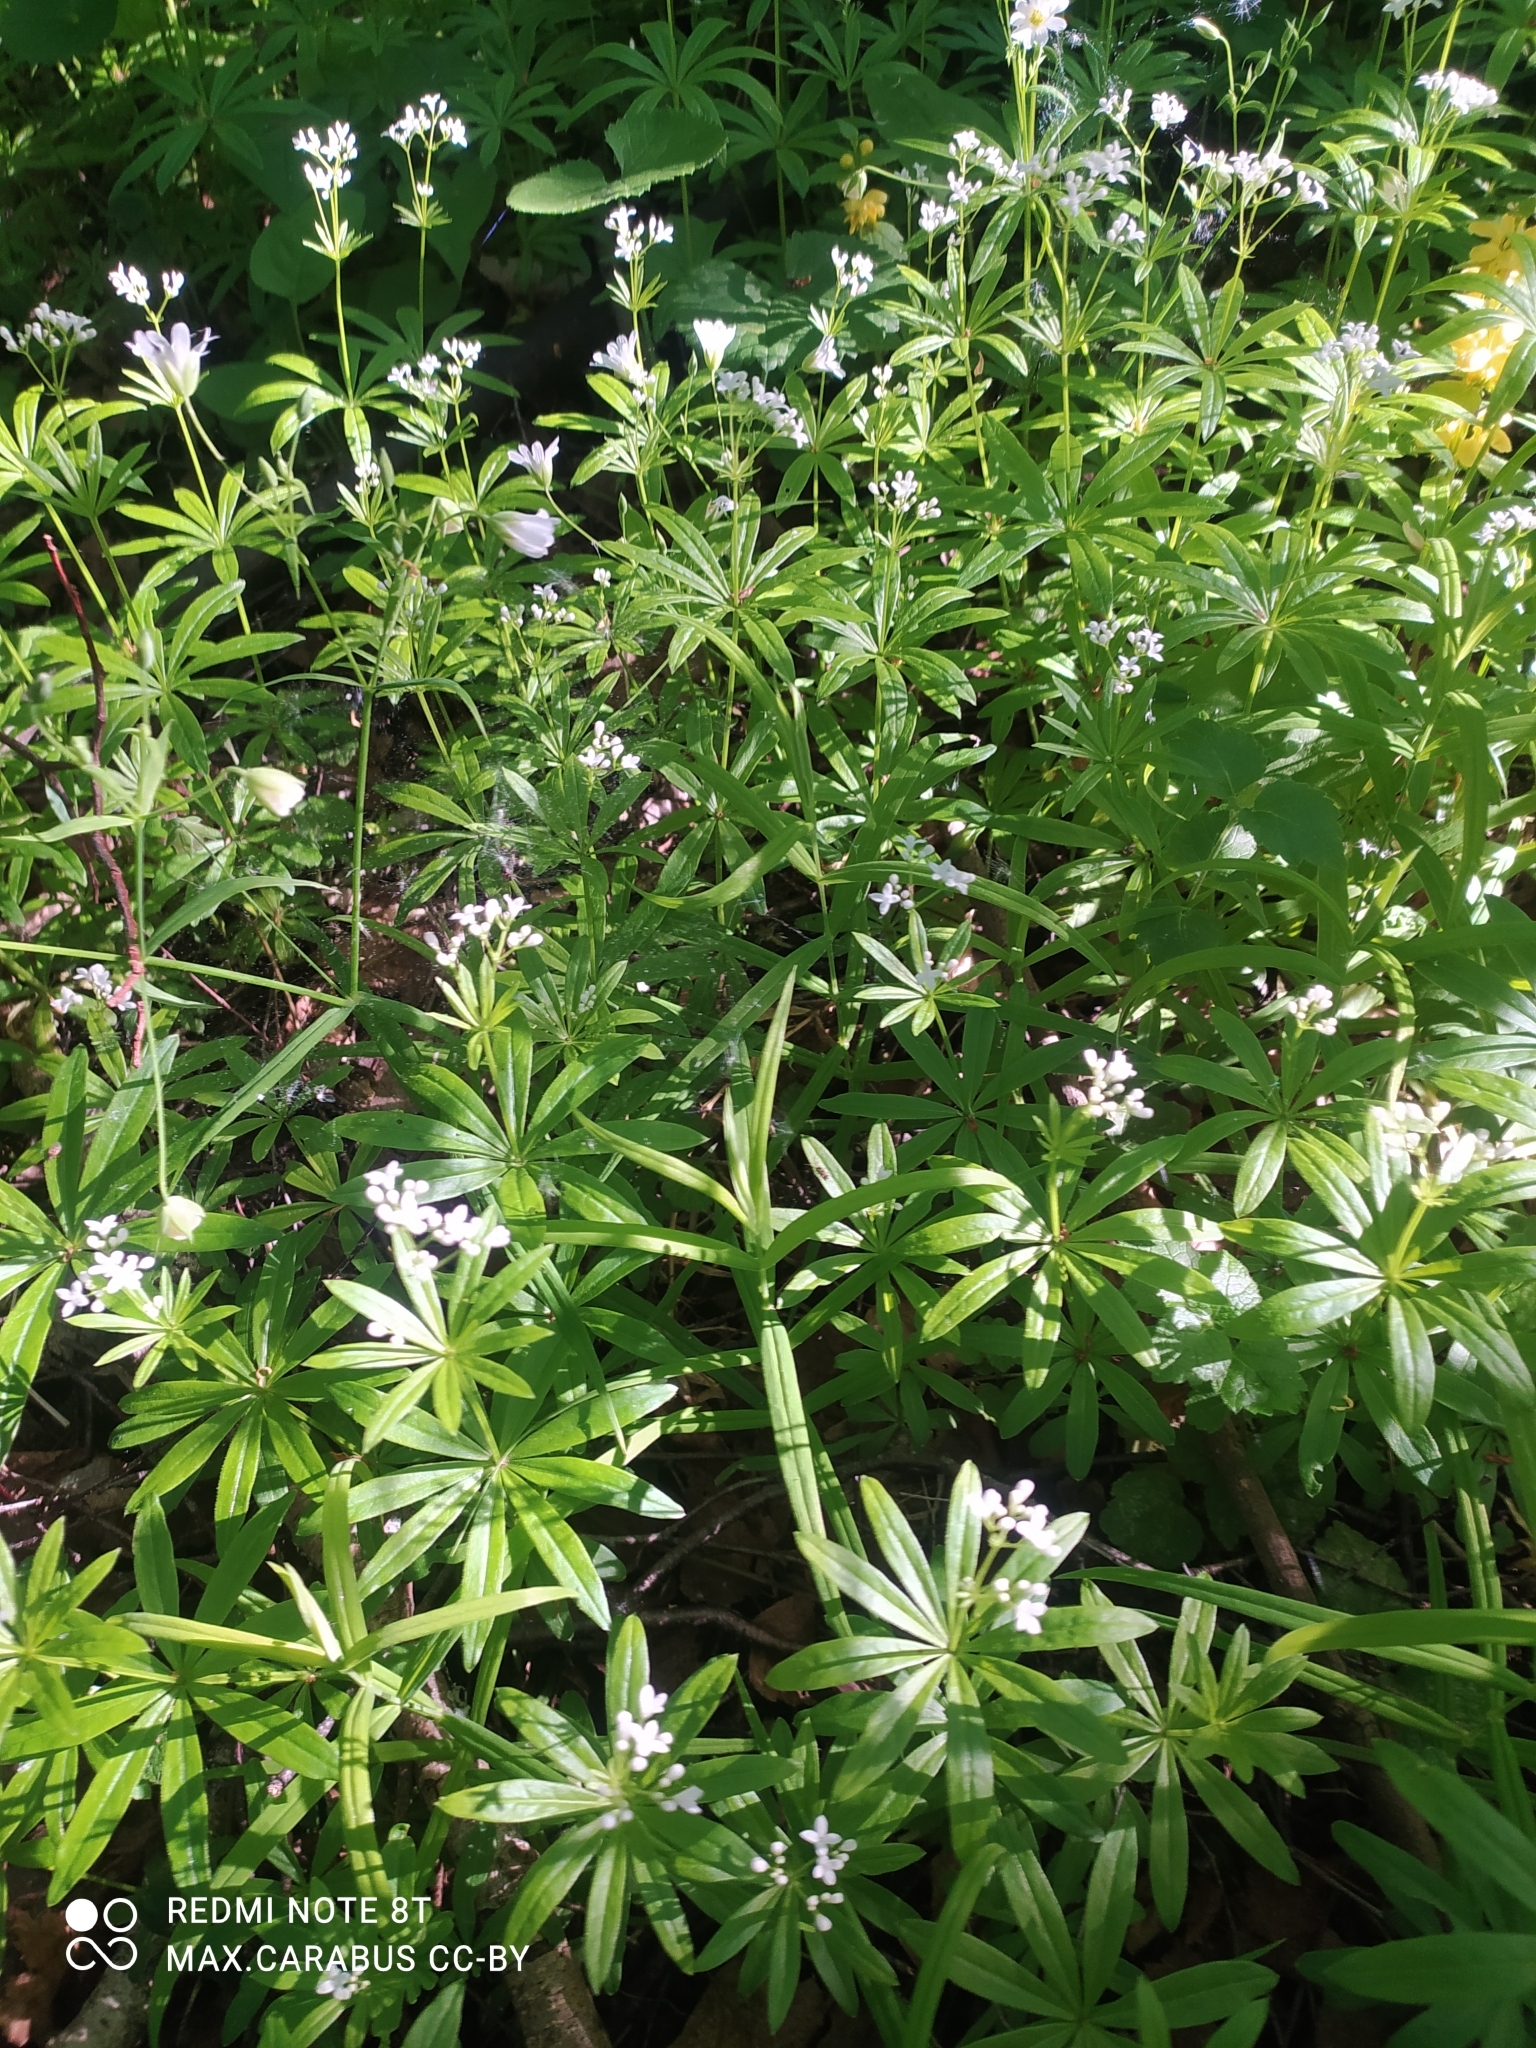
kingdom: Plantae
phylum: Tracheophyta
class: Magnoliopsida
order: Gentianales
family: Rubiaceae
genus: Galium
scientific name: Galium odoratum
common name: Sweet woodruff
